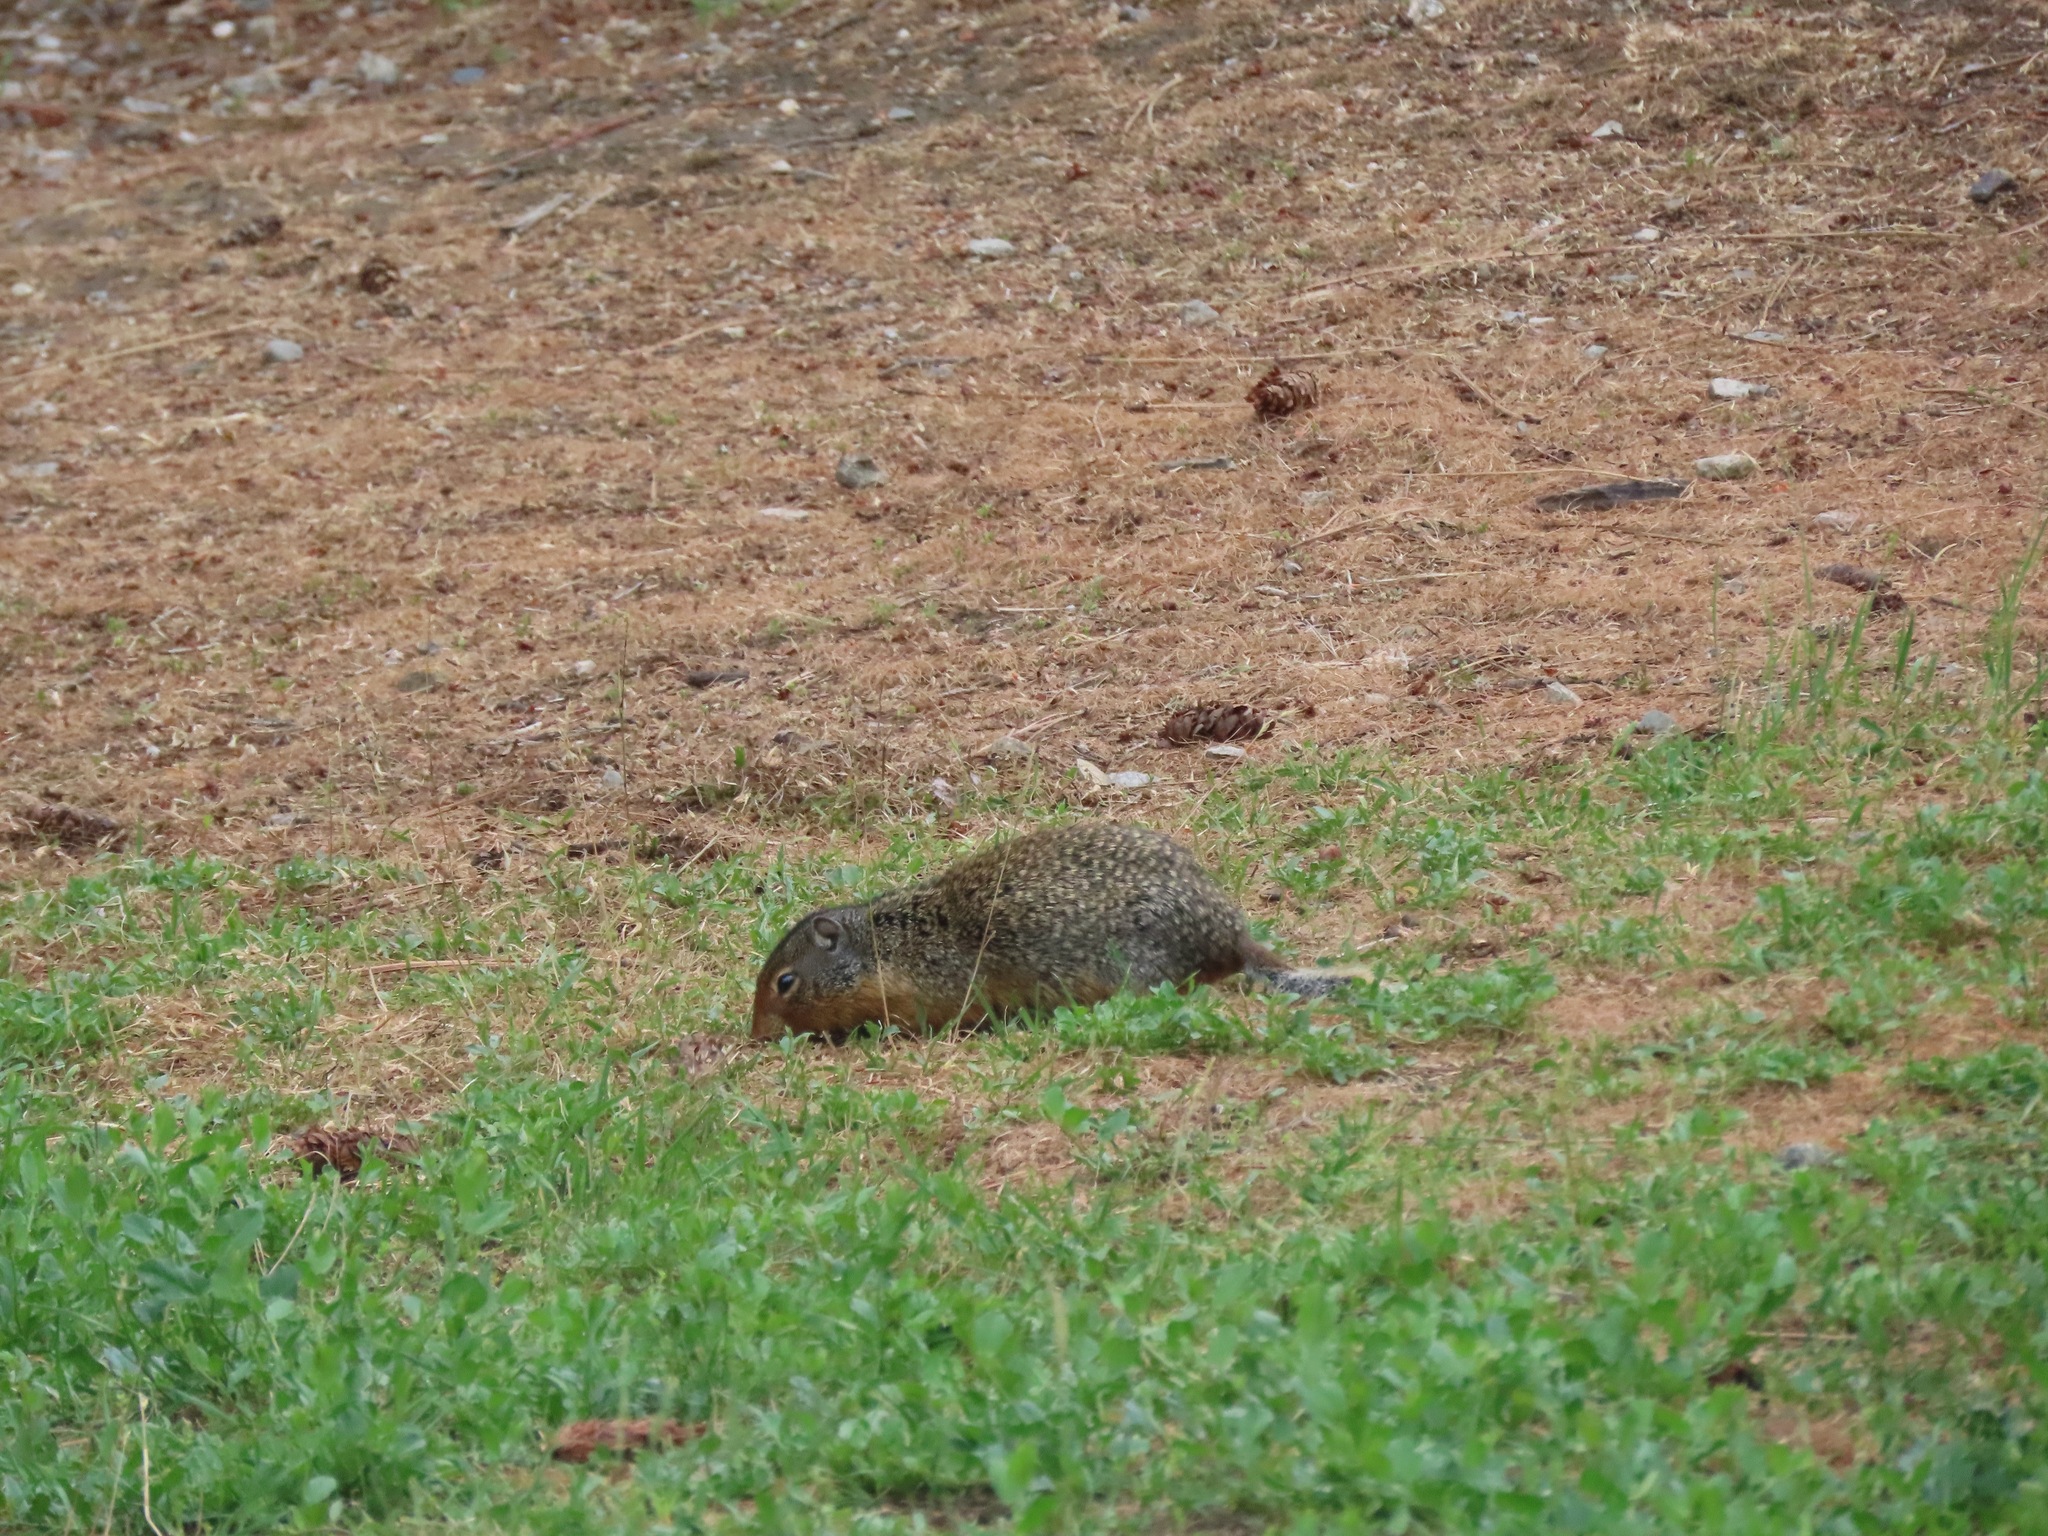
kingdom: Animalia
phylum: Chordata
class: Mammalia
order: Rodentia
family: Sciuridae
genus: Urocitellus
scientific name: Urocitellus columbianus
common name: Columbian ground squirrel
